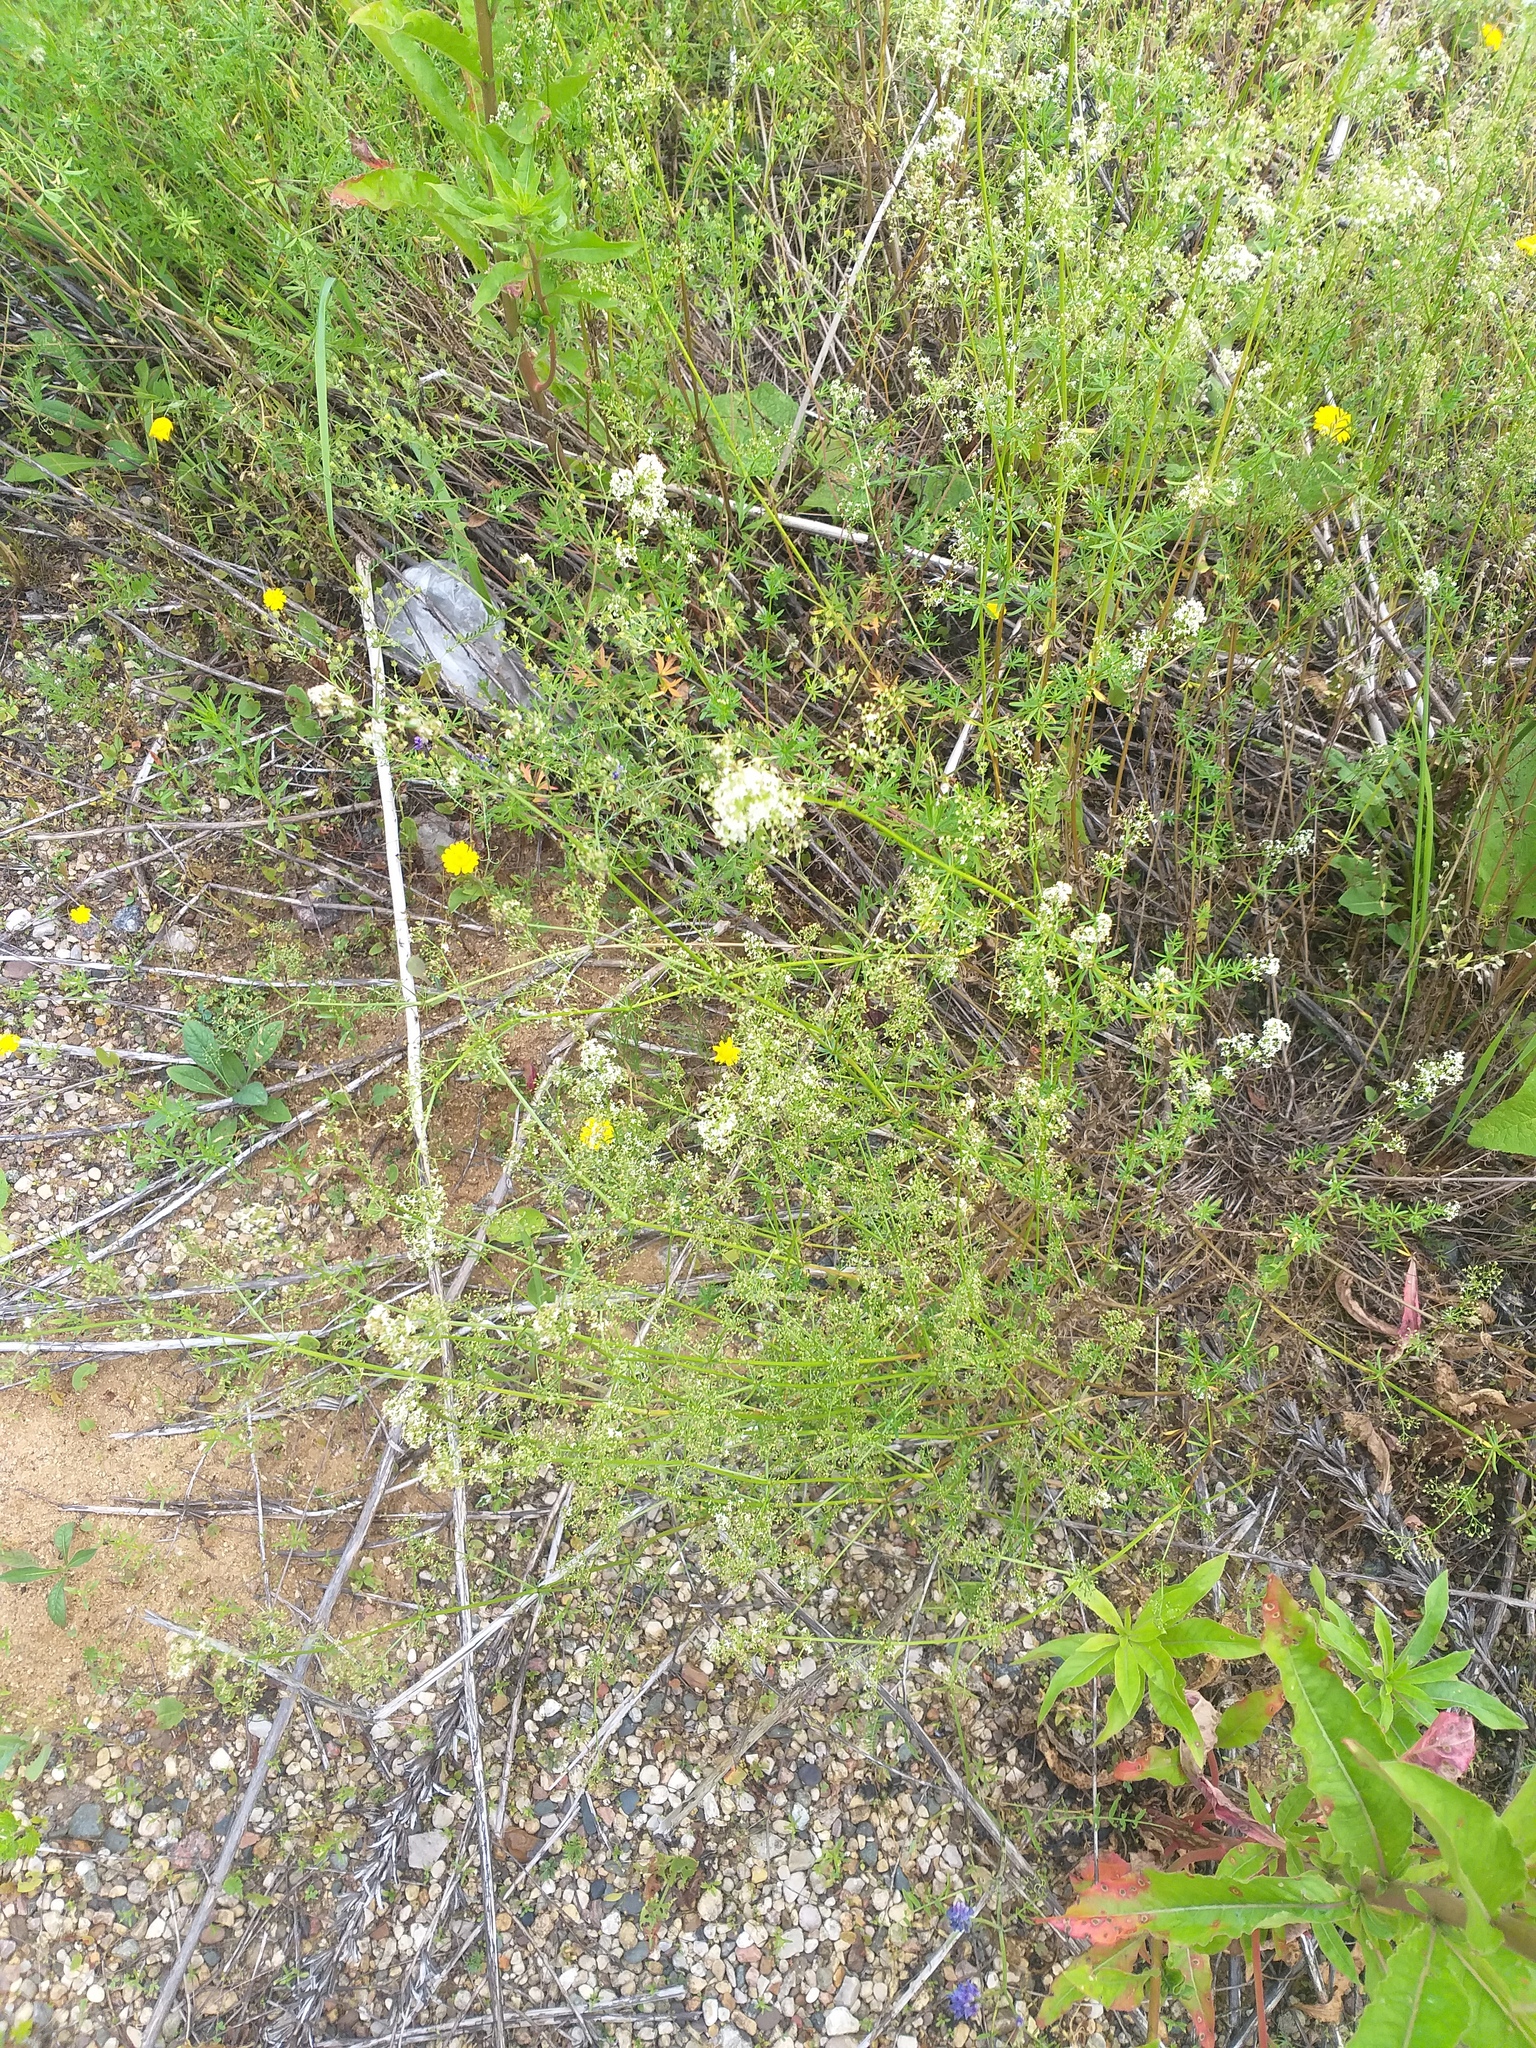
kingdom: Plantae
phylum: Tracheophyta
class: Magnoliopsida
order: Gentianales
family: Rubiaceae
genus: Galium
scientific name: Galium mollugo
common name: Hedge bedstraw
